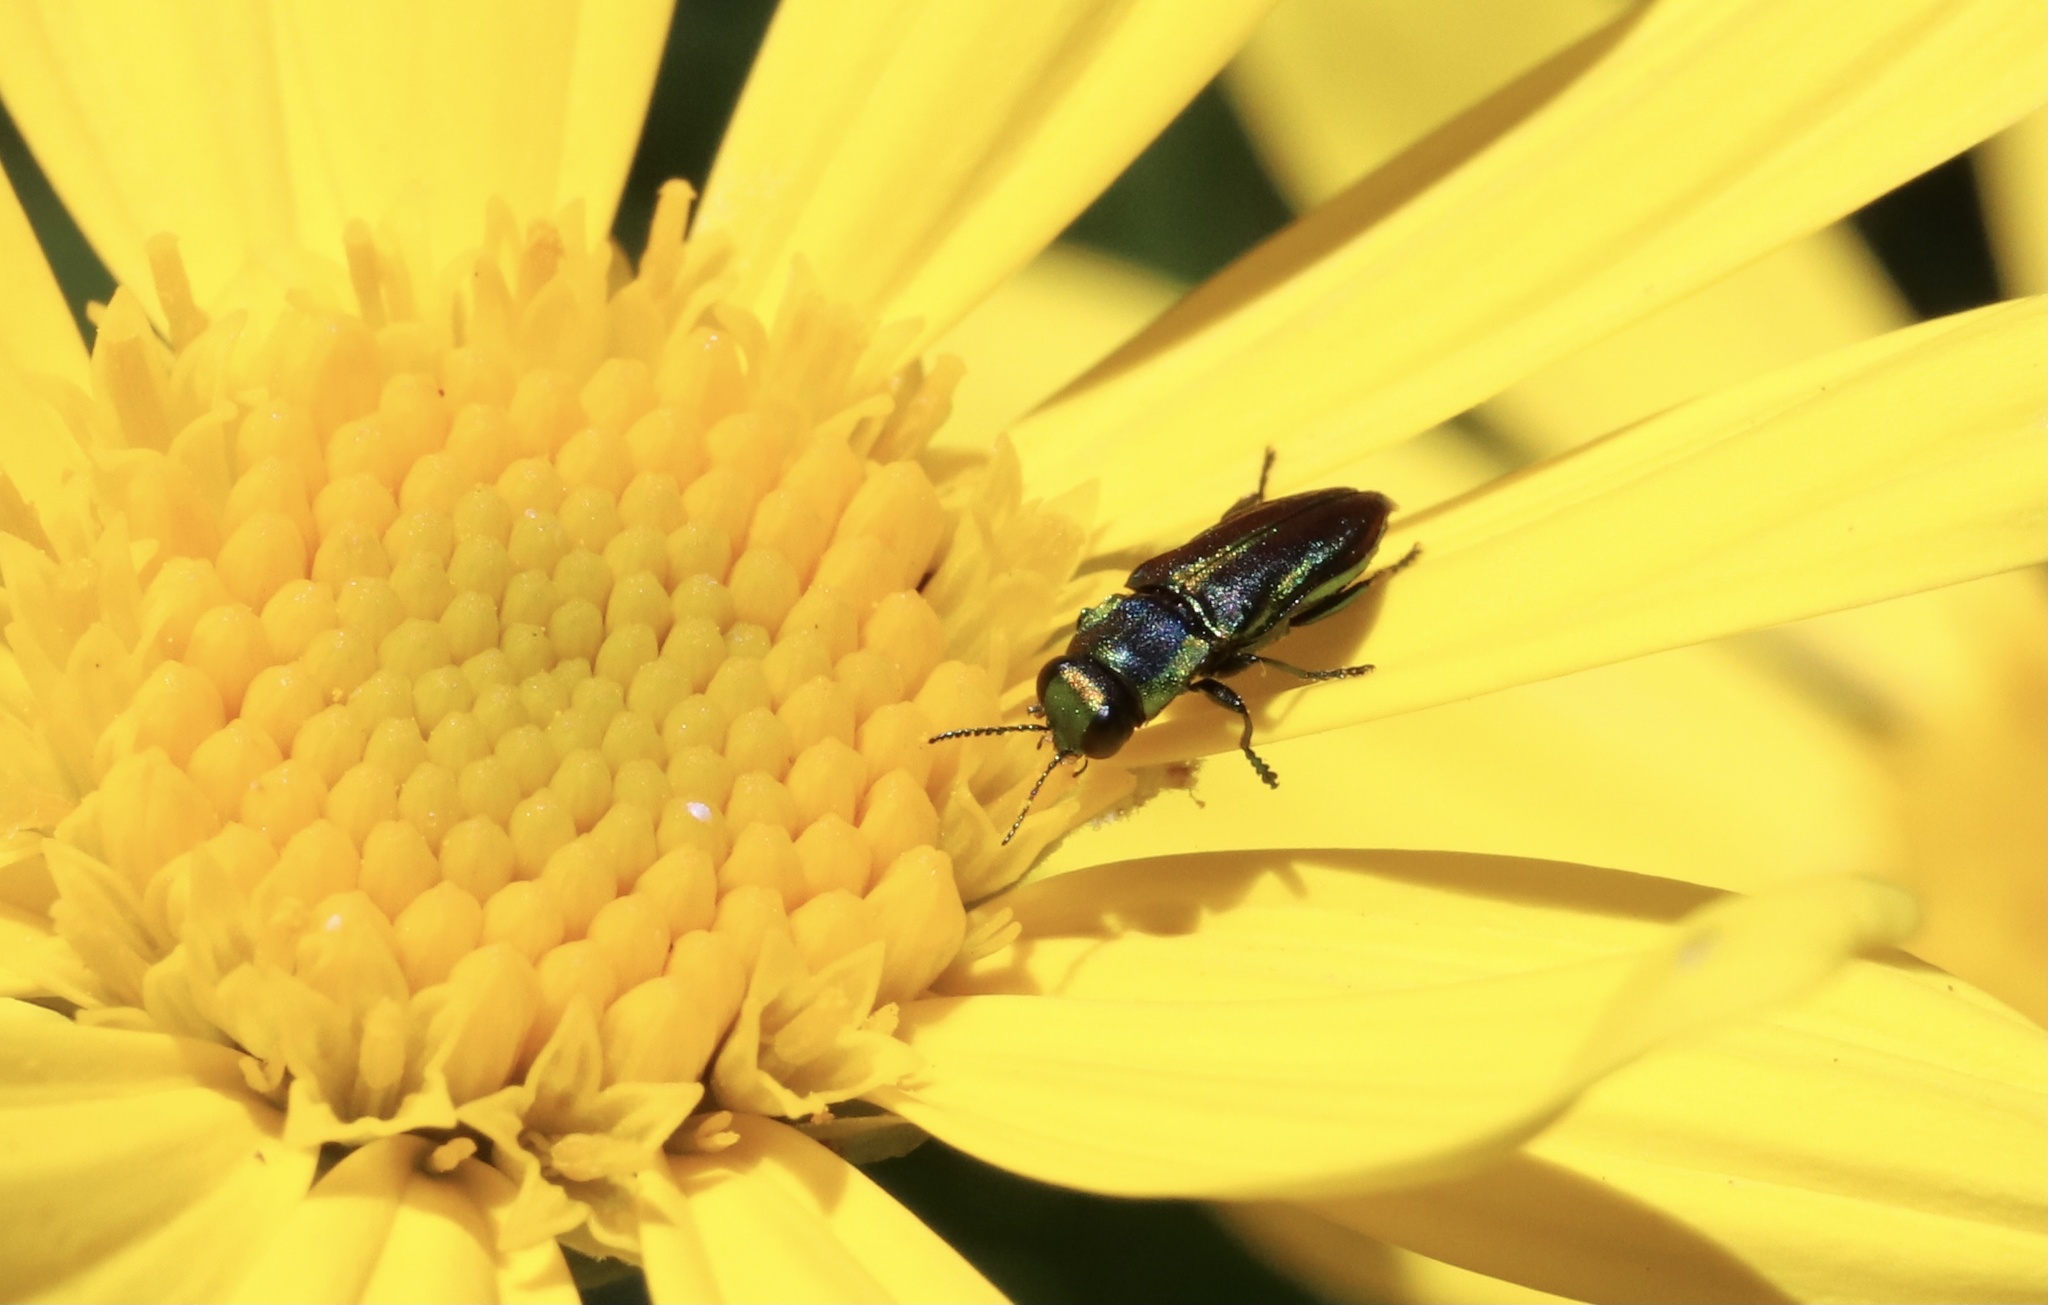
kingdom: Animalia
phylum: Arthropoda
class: Insecta
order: Coleoptera
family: Buprestidae
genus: Bilyaxia
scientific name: Bilyaxia concinna
